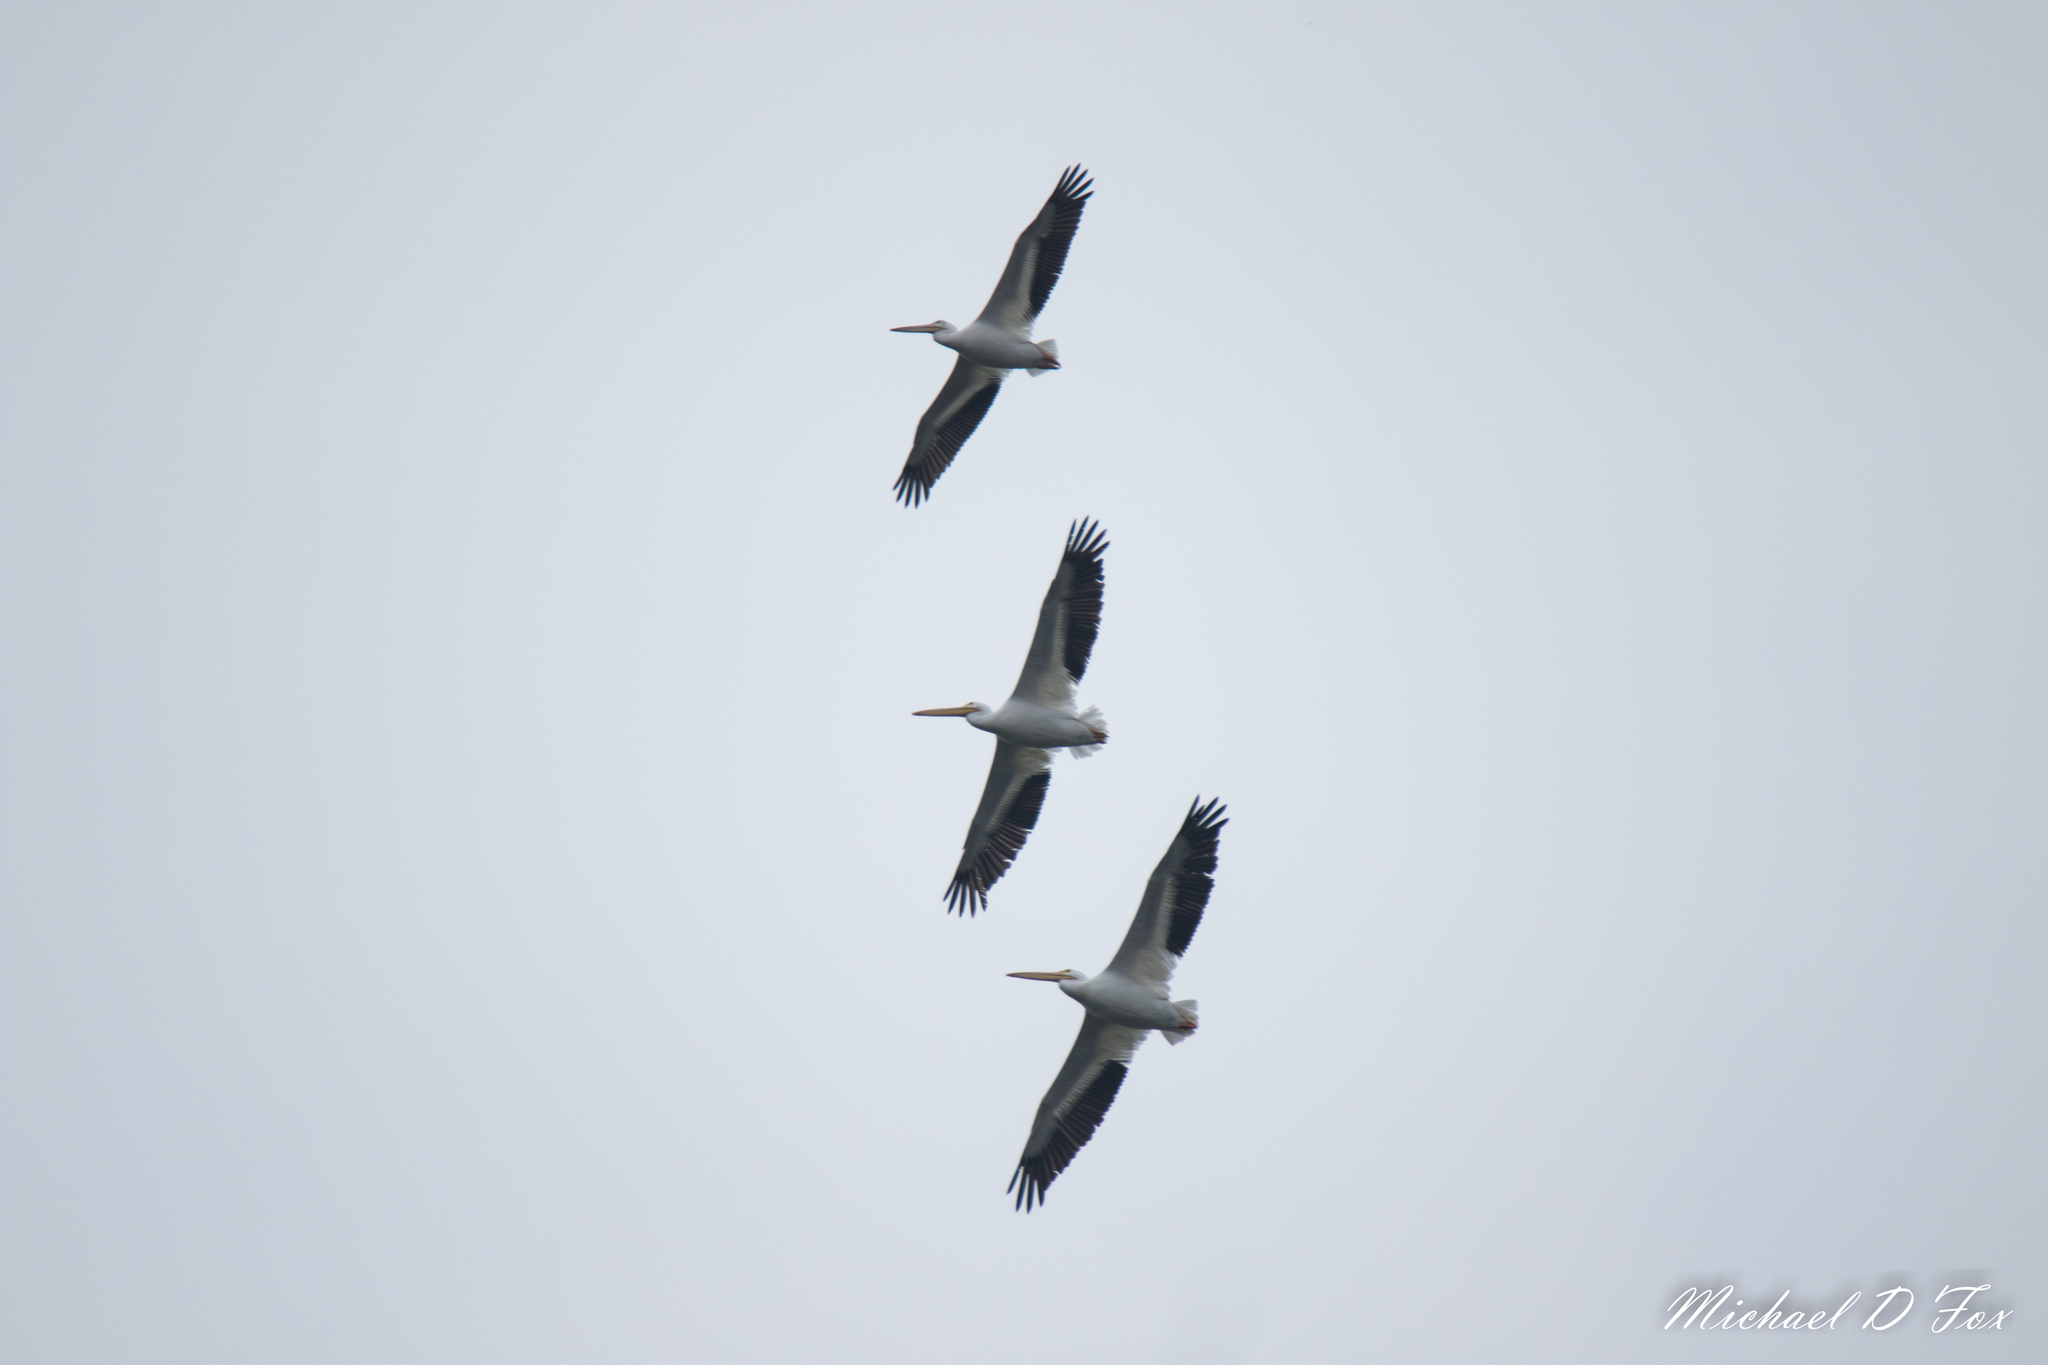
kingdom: Animalia
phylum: Chordata
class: Aves
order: Pelecaniformes
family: Pelecanidae
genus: Pelecanus
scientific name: Pelecanus erythrorhynchos
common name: American white pelican
